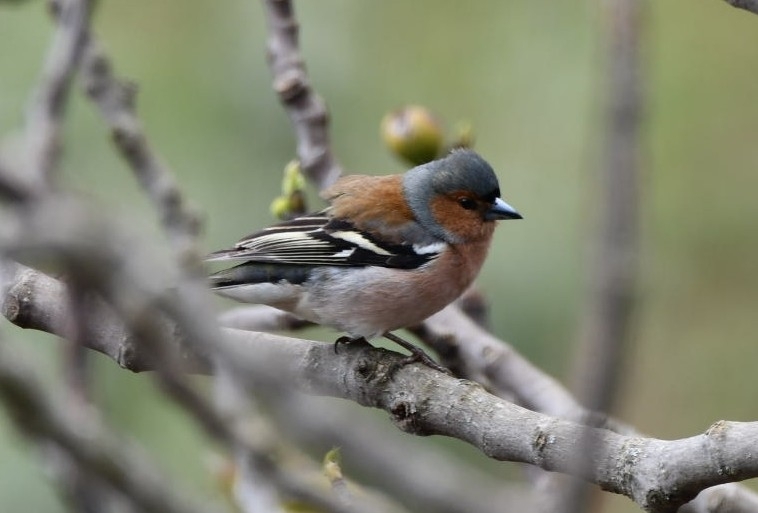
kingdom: Animalia
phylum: Chordata
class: Aves
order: Passeriformes
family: Fringillidae
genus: Fringilla
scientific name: Fringilla coelebs
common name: Common chaffinch
